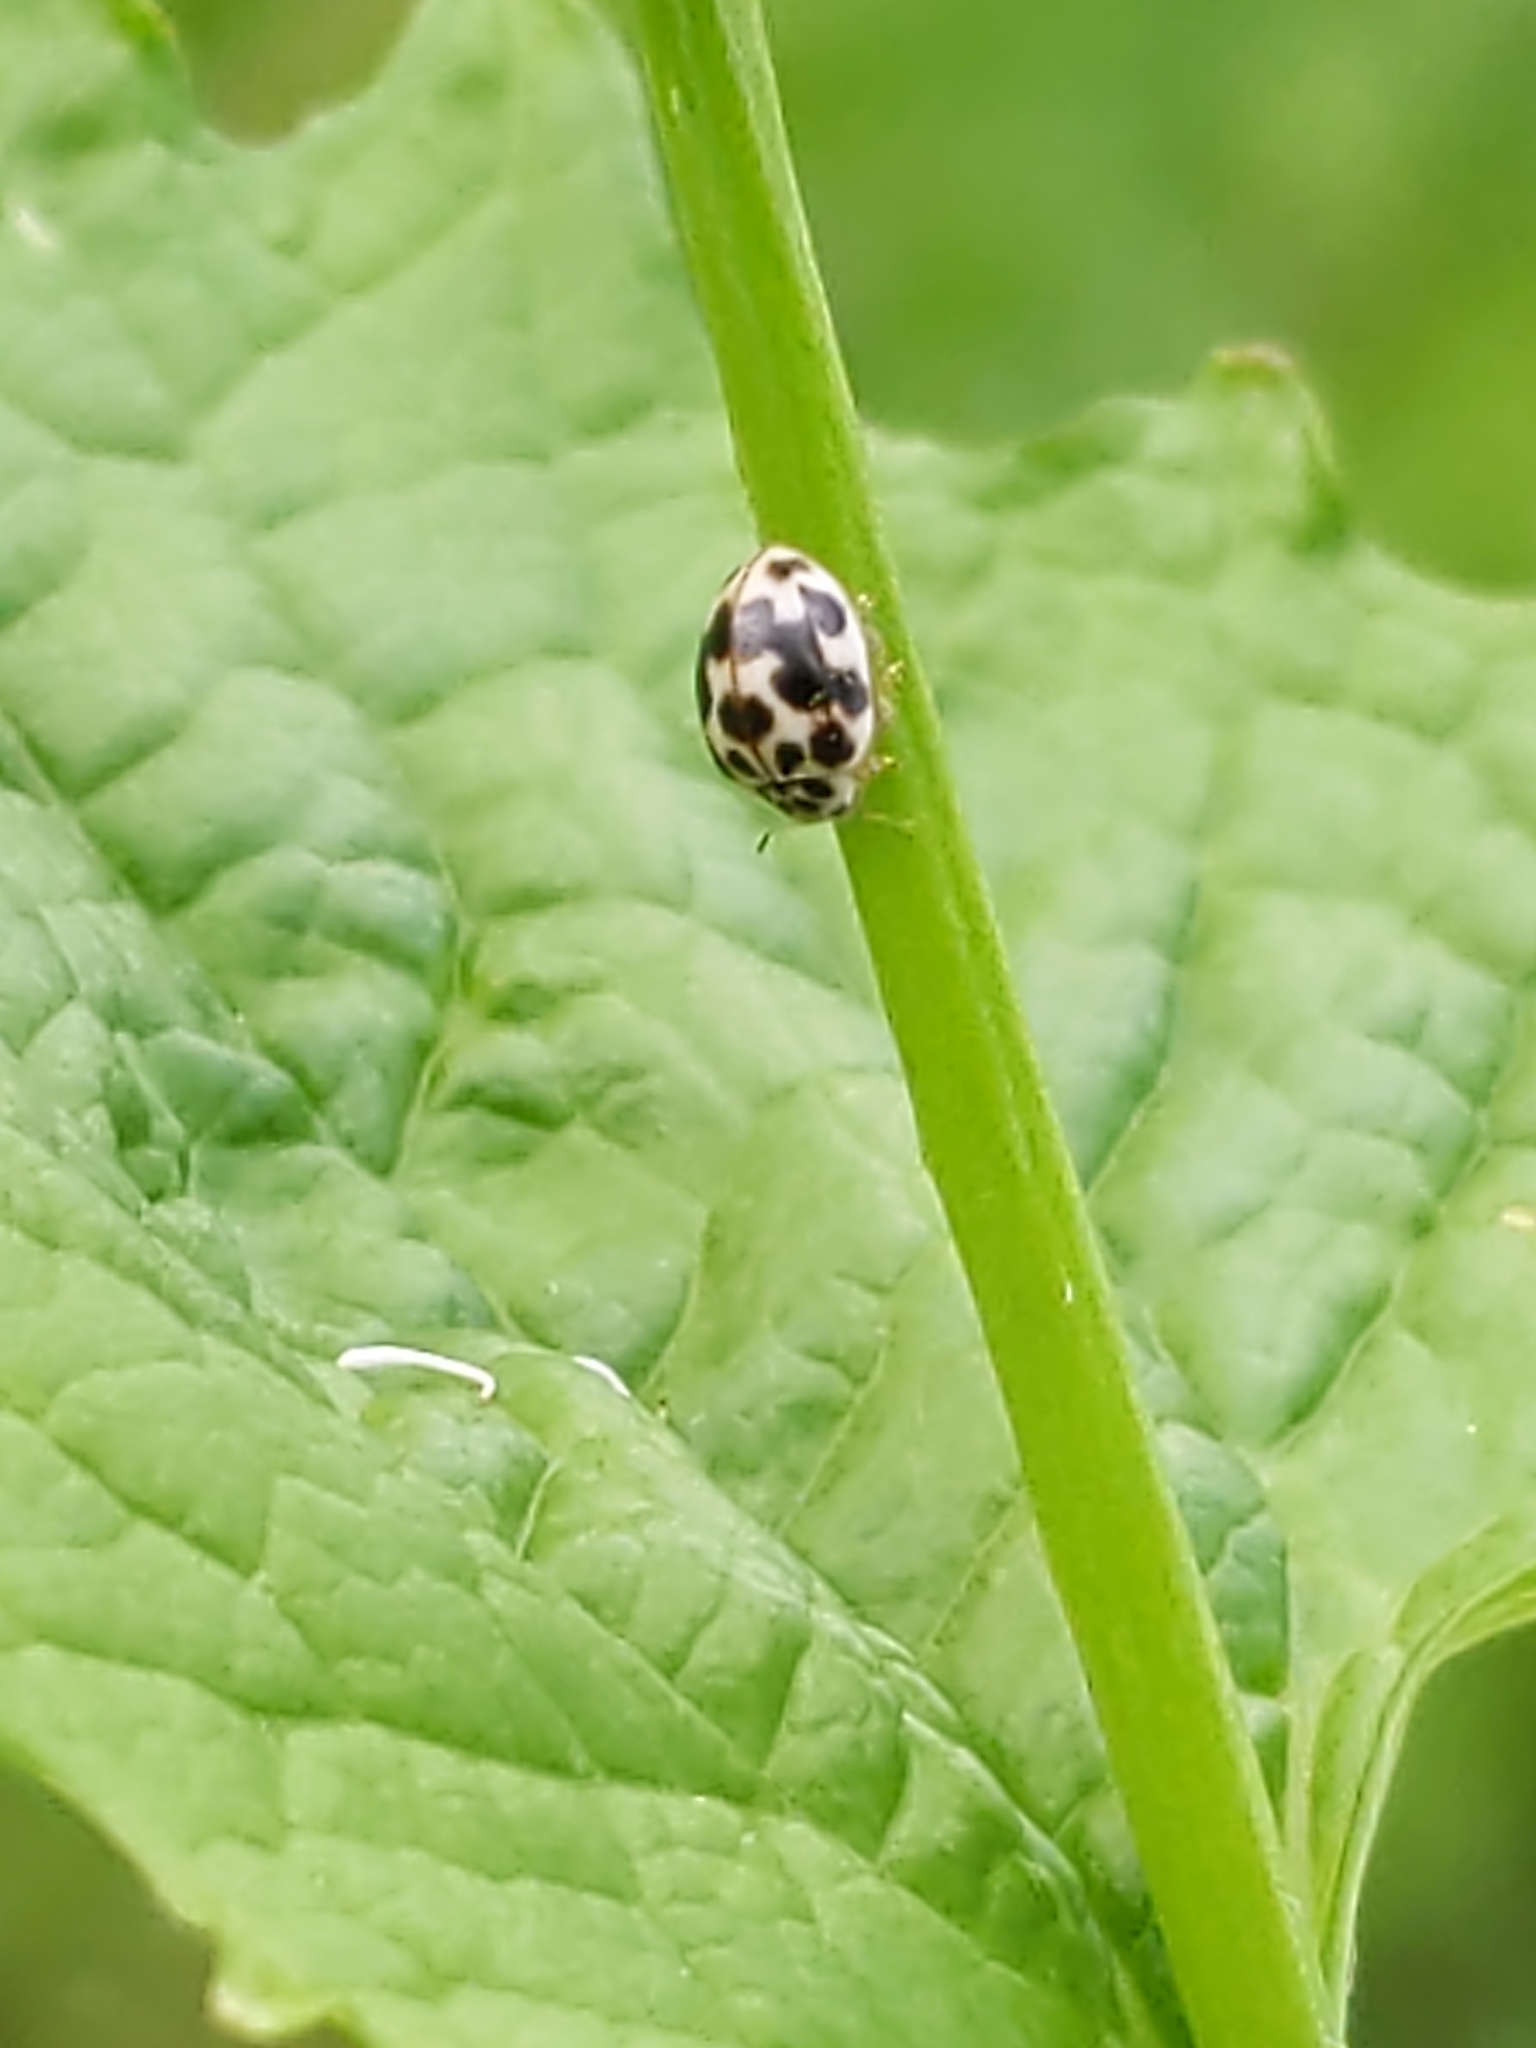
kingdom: Animalia
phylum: Arthropoda
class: Insecta
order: Coleoptera
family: Coccinellidae
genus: Psyllobora
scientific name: Psyllobora vigintimaculata
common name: Ladybird beetle
